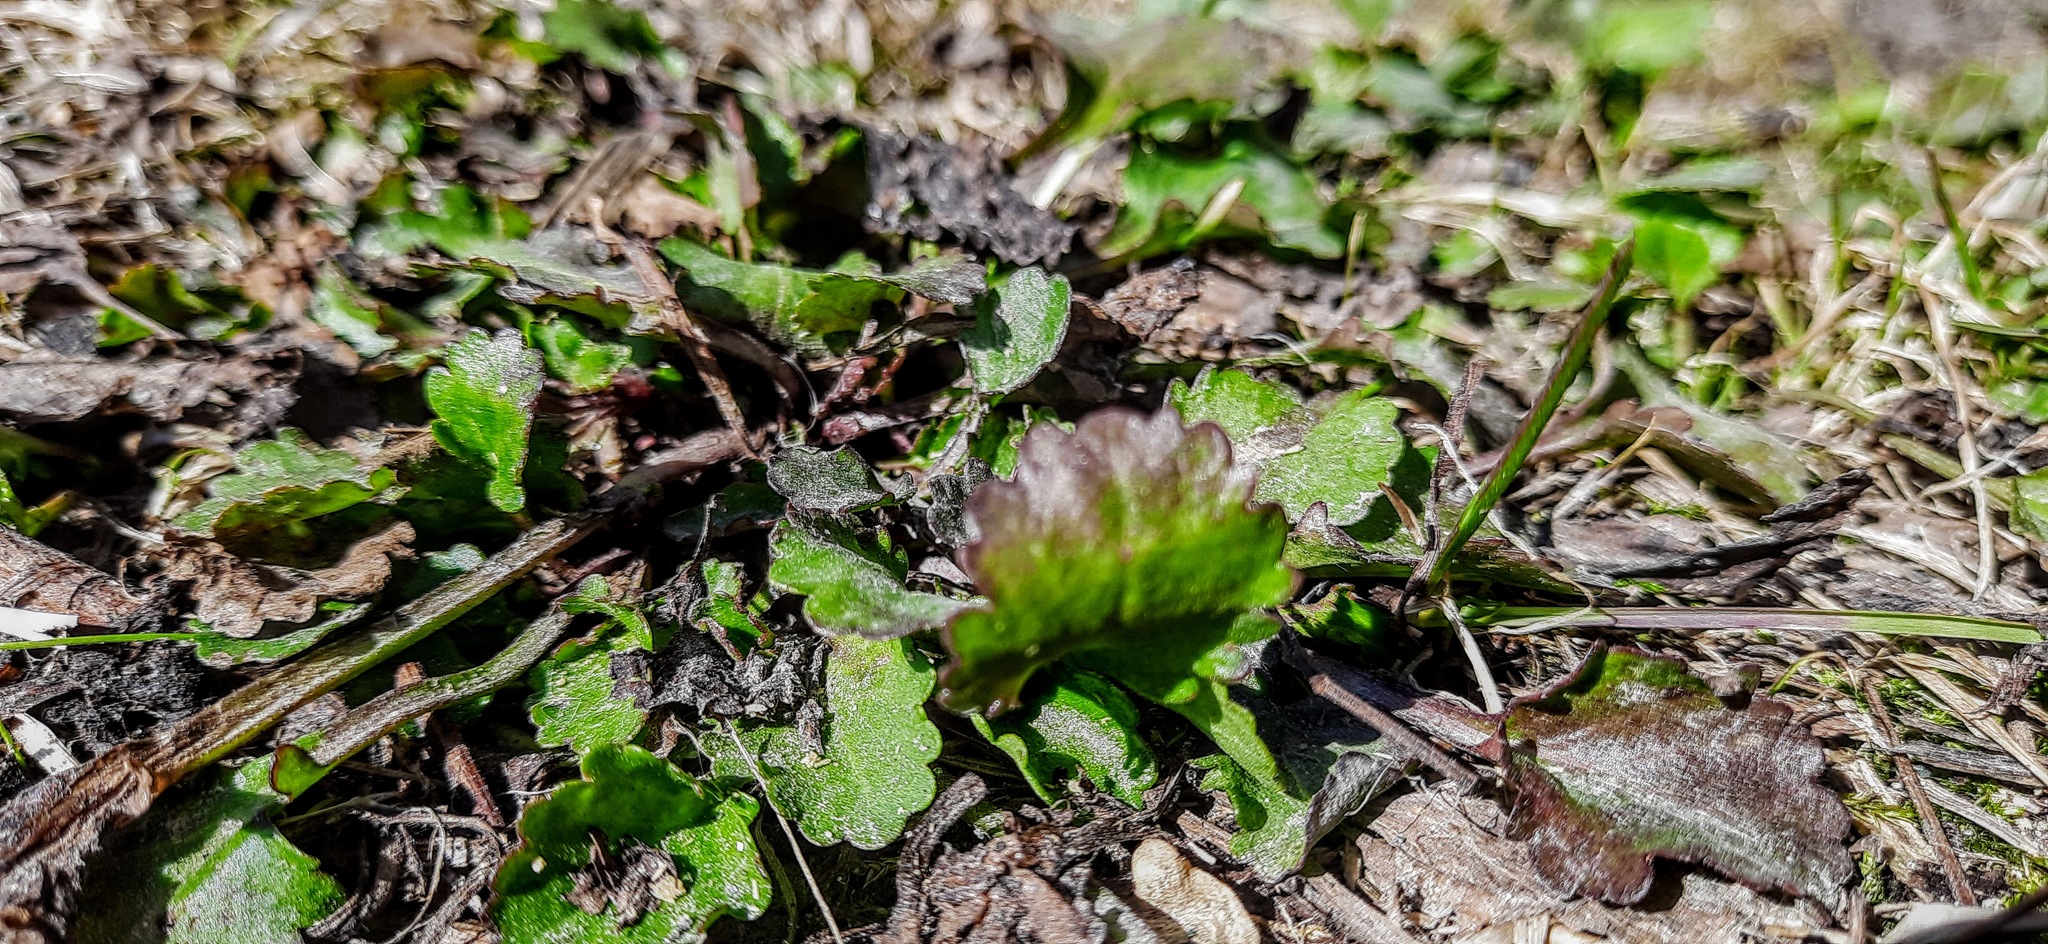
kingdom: Plantae
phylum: Tracheophyta
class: Magnoliopsida
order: Lamiales
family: Lamiaceae
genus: Glechoma
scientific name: Glechoma hederacea
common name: Ground ivy
